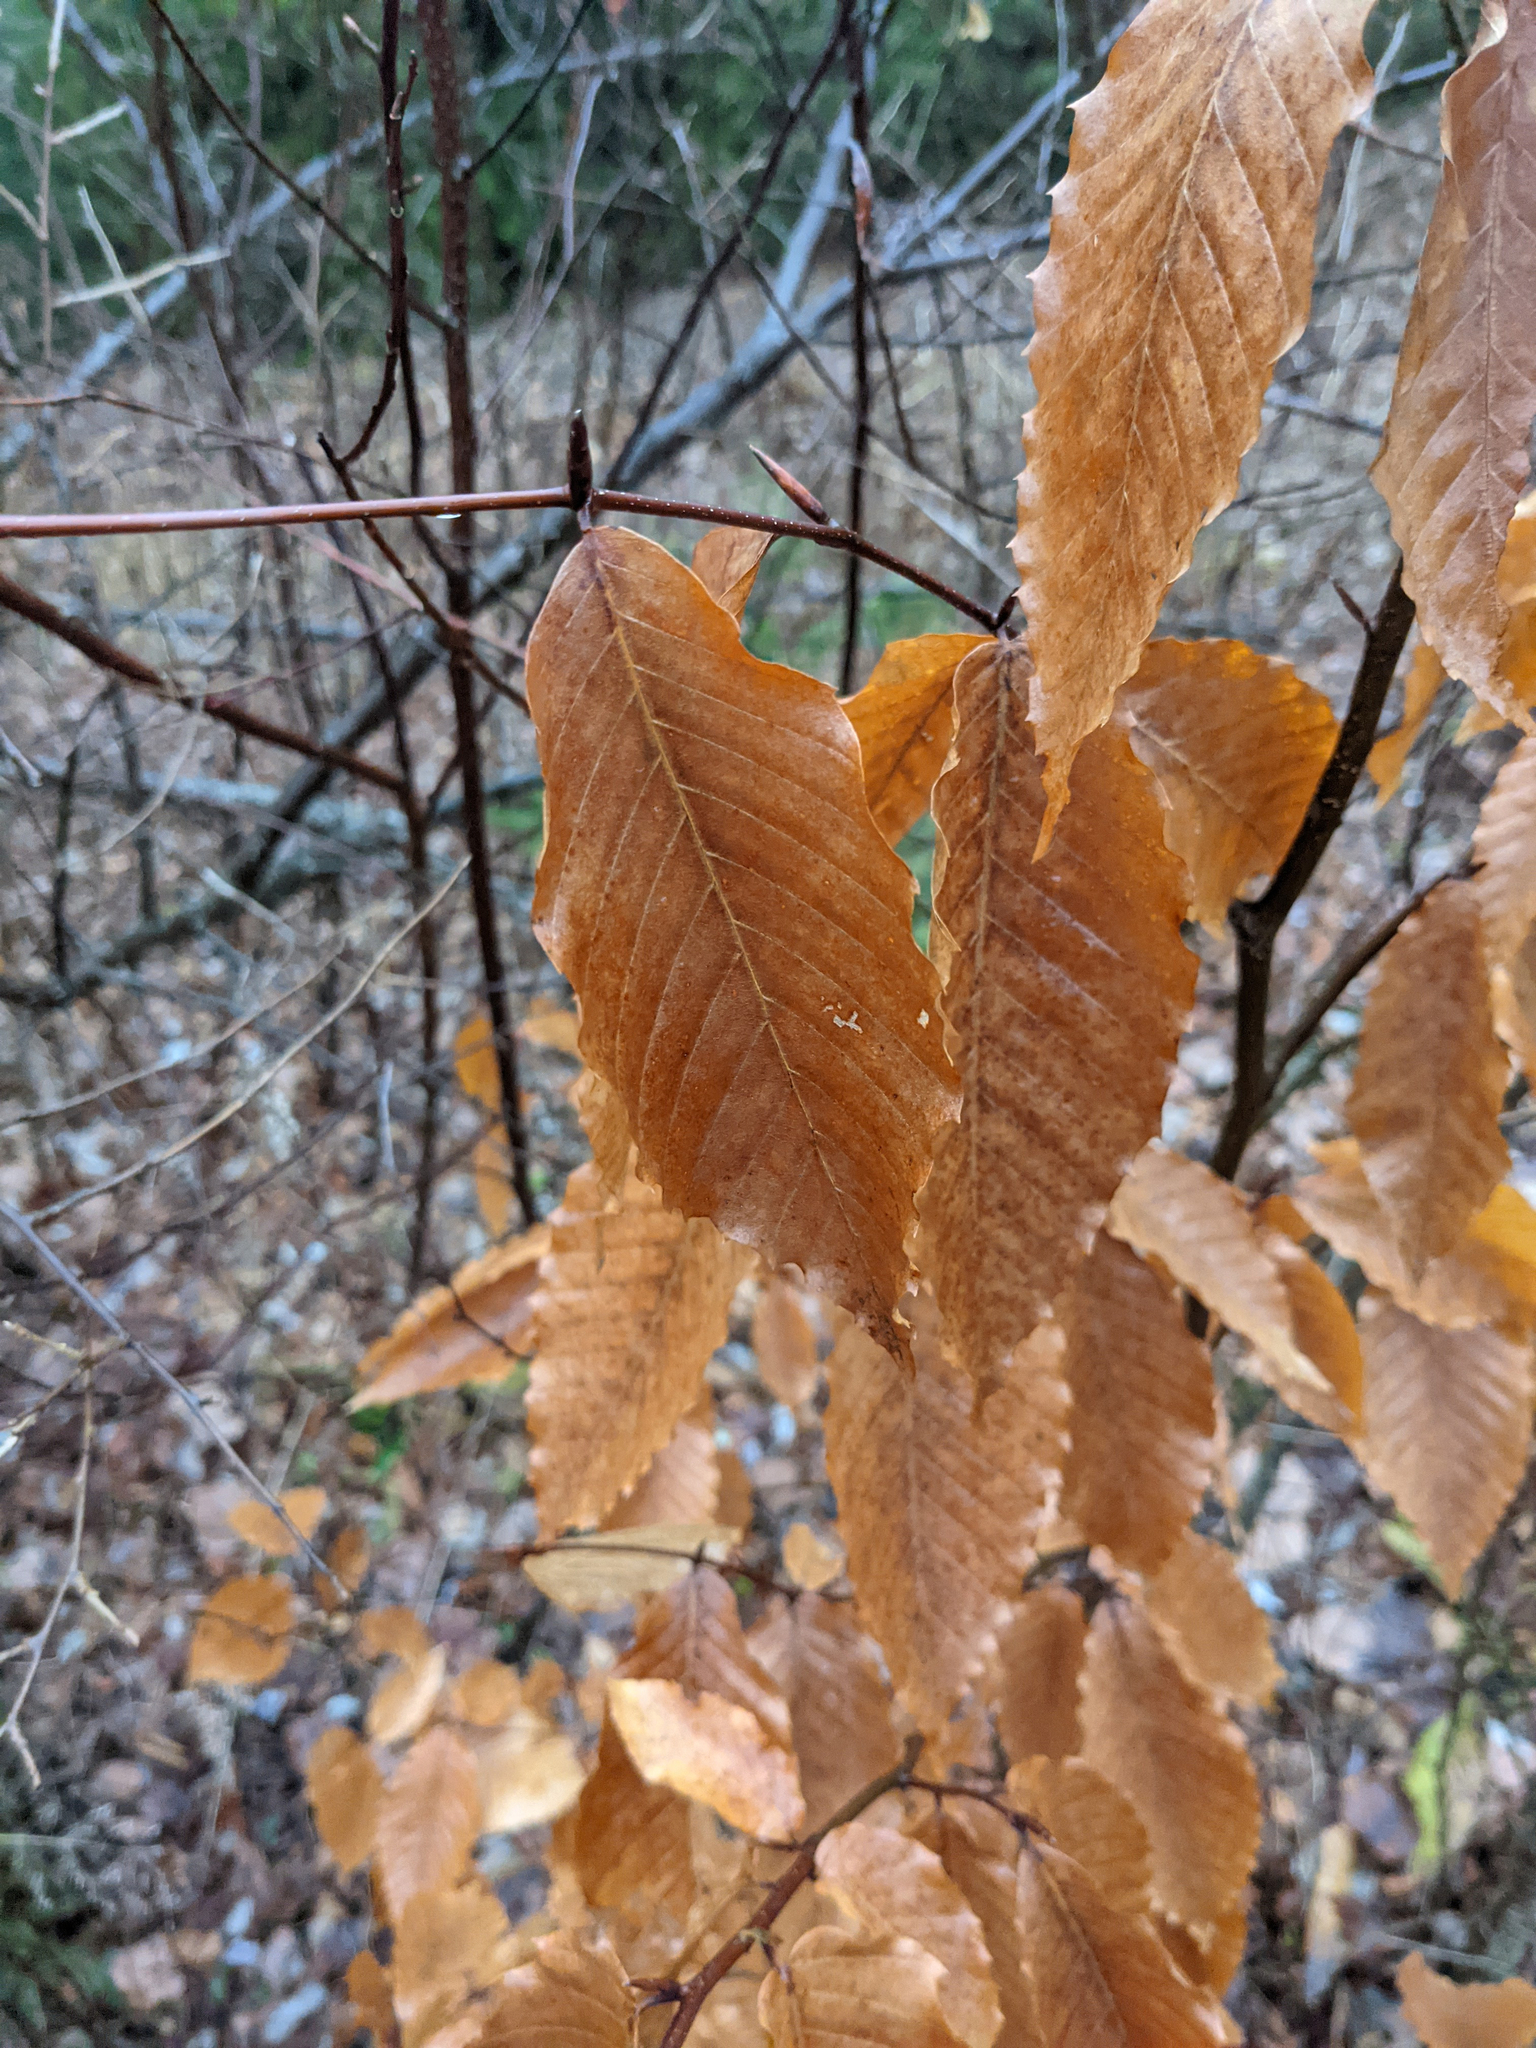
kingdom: Plantae
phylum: Tracheophyta
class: Magnoliopsida
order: Fagales
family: Fagaceae
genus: Fagus
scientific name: Fagus grandifolia
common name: American beech
